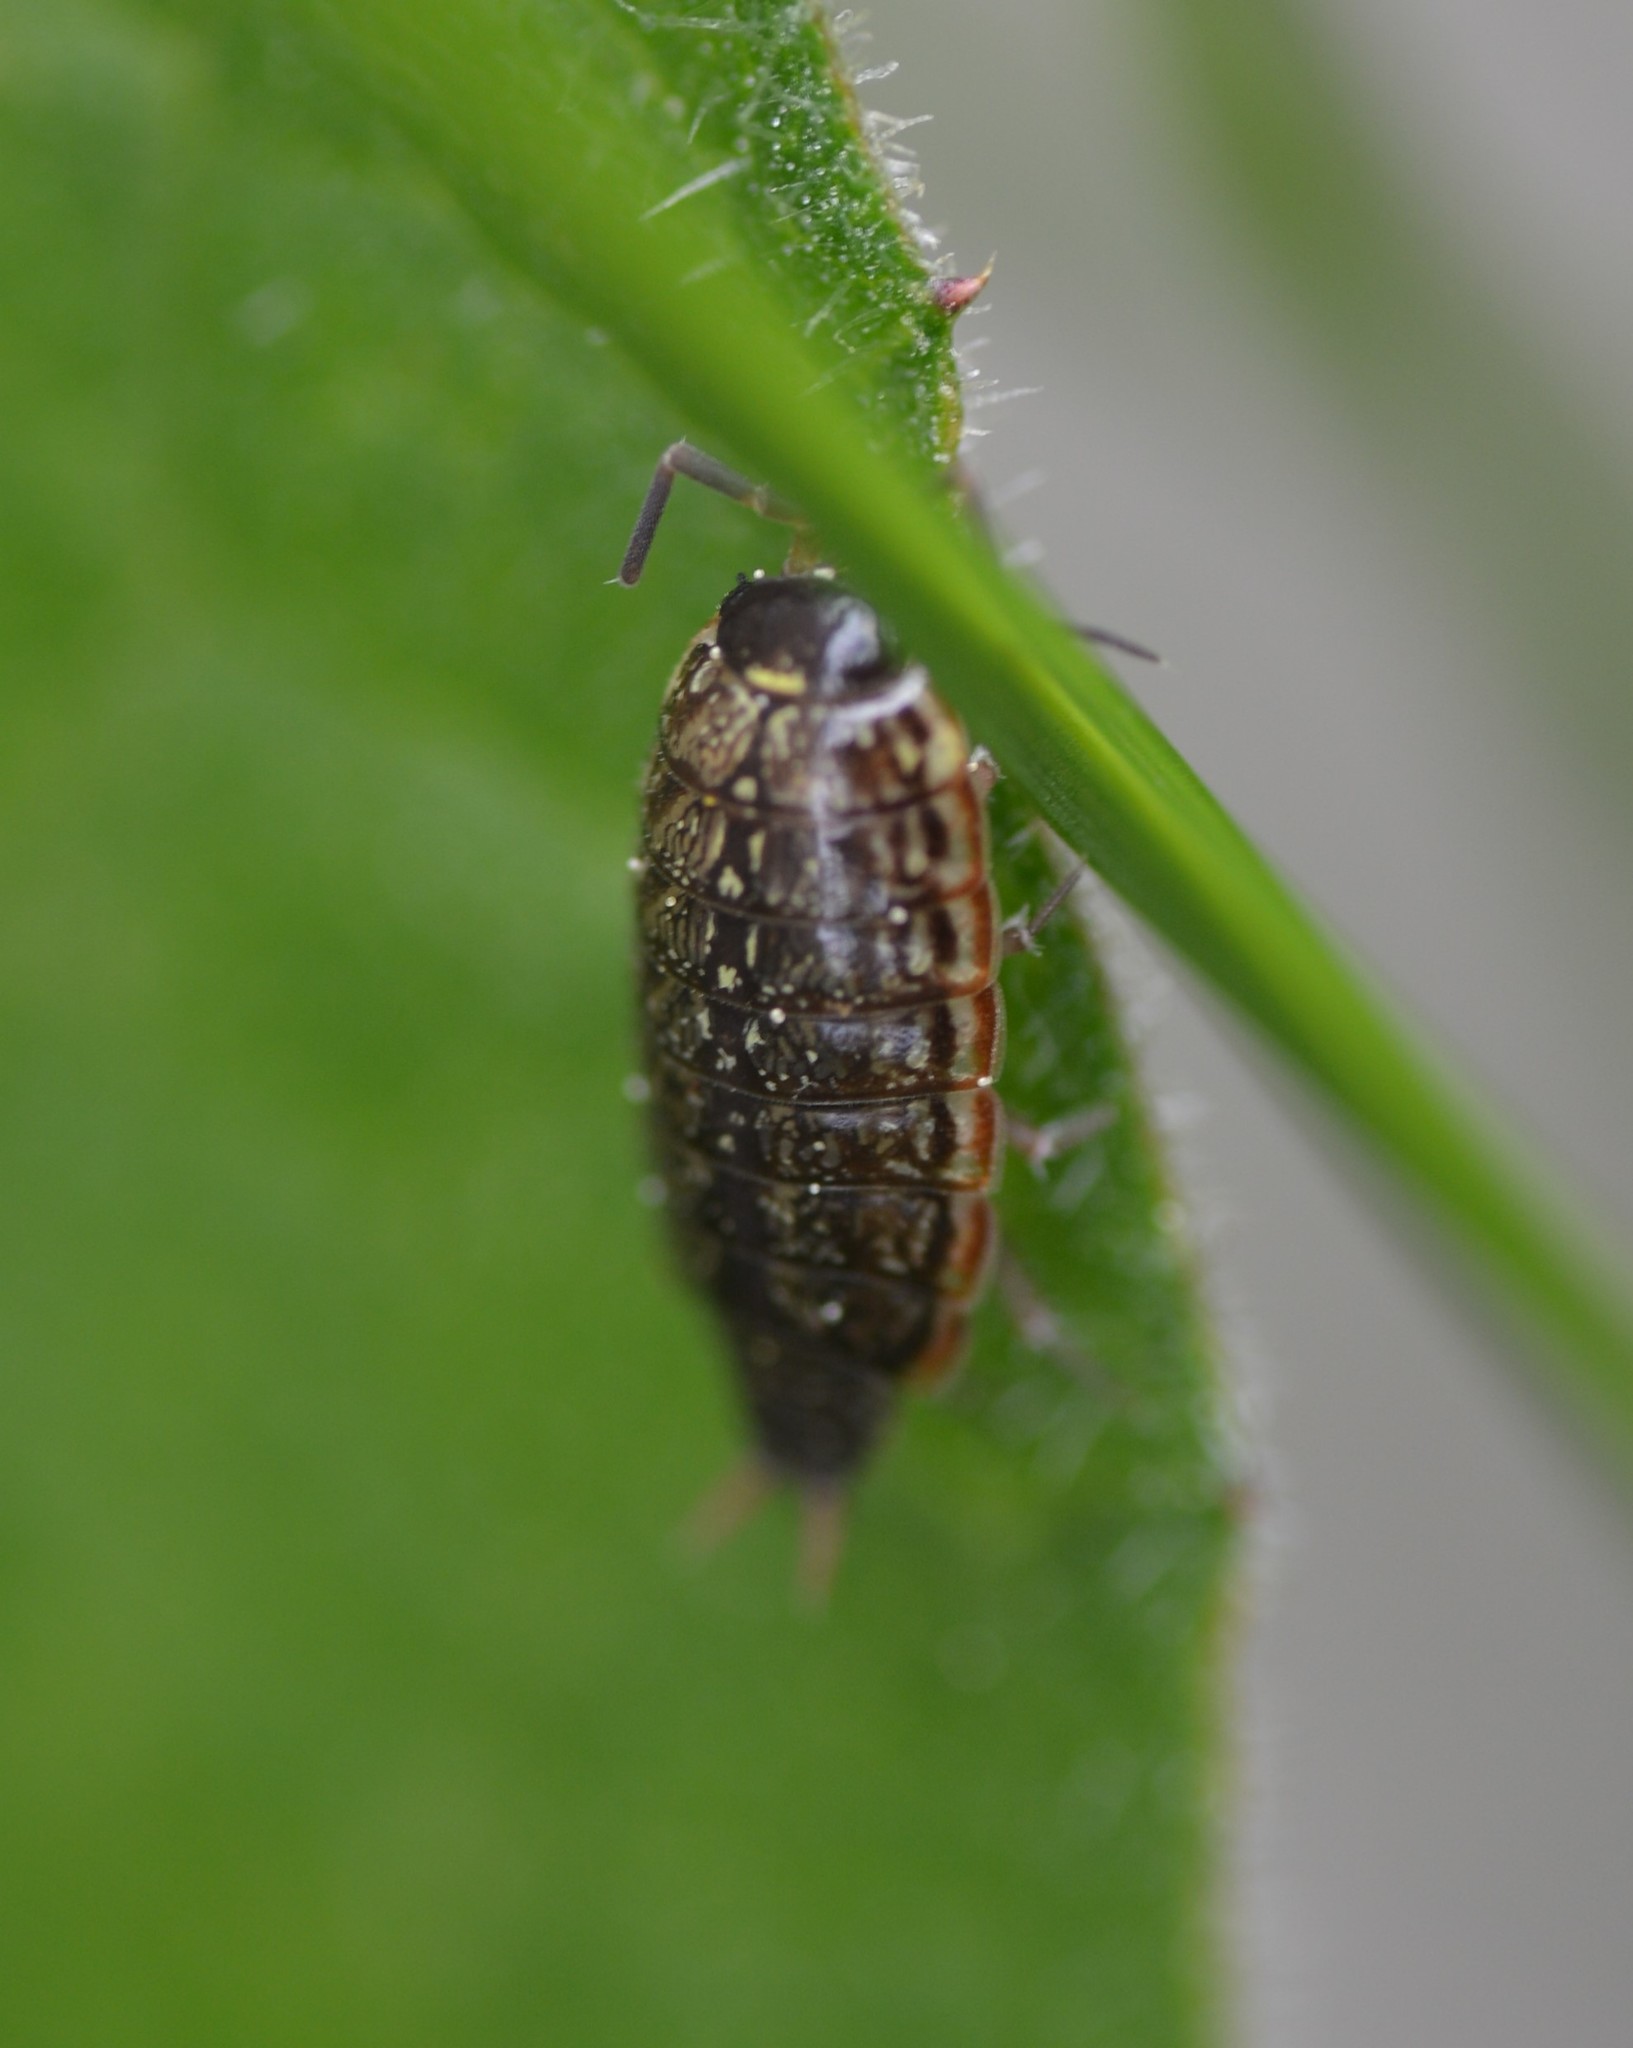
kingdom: Animalia
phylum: Arthropoda
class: Malacostraca
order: Isopoda
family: Philosciidae
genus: Philoscia
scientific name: Philoscia muscorum
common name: Common striped woodlouse
